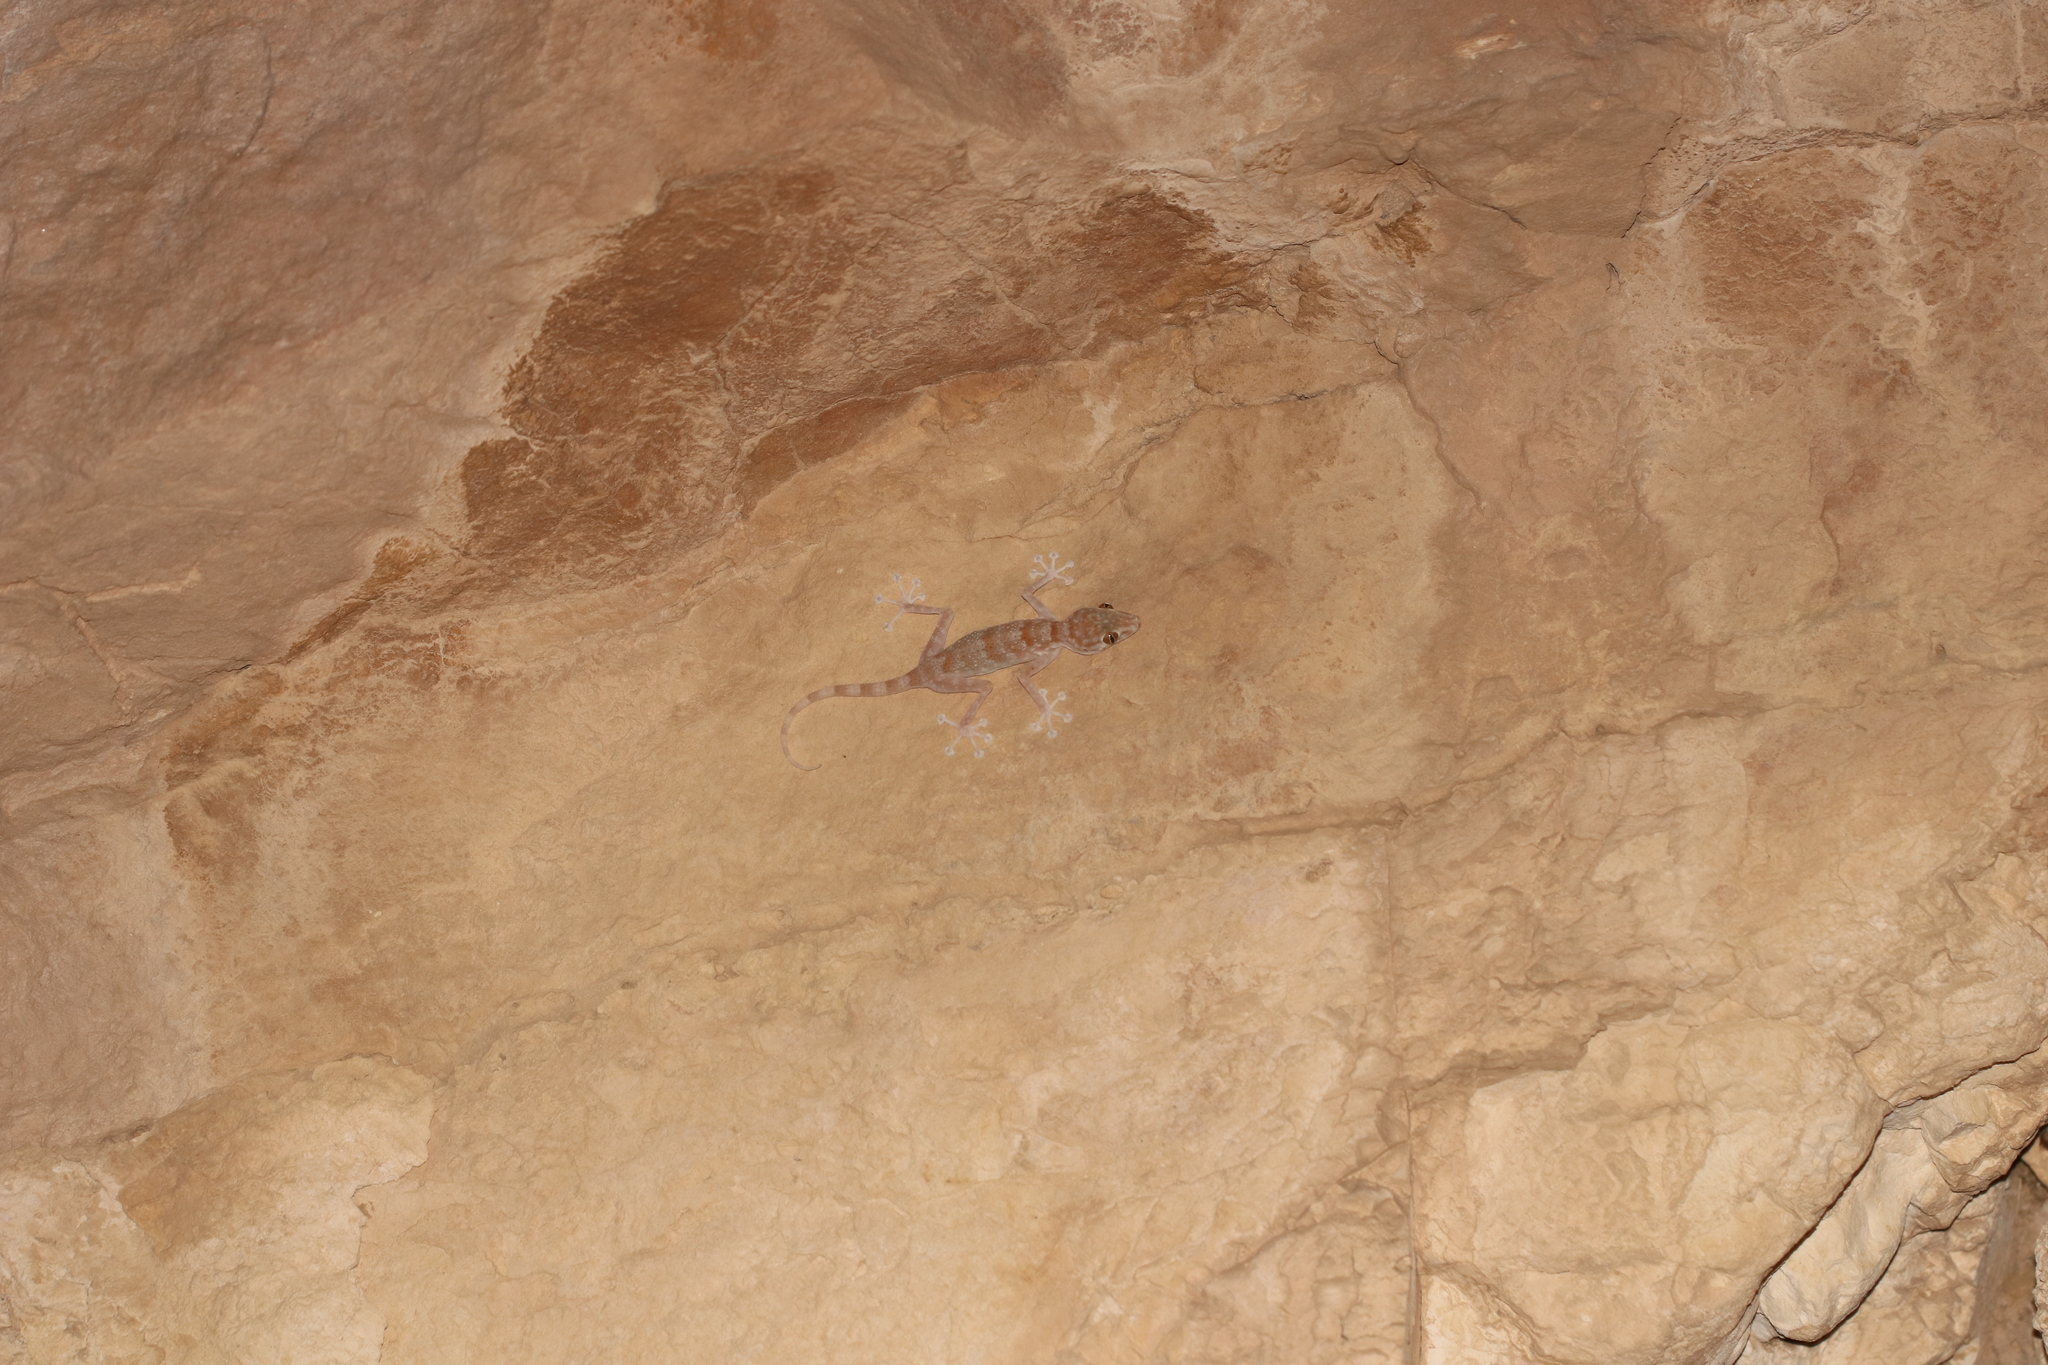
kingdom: Animalia
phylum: Chordata
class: Squamata
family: Phyllodactylidae
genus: Ptyodactylus
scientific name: Ptyodactylus hasselquistii
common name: Hasselquist’s fan-footed gecko
